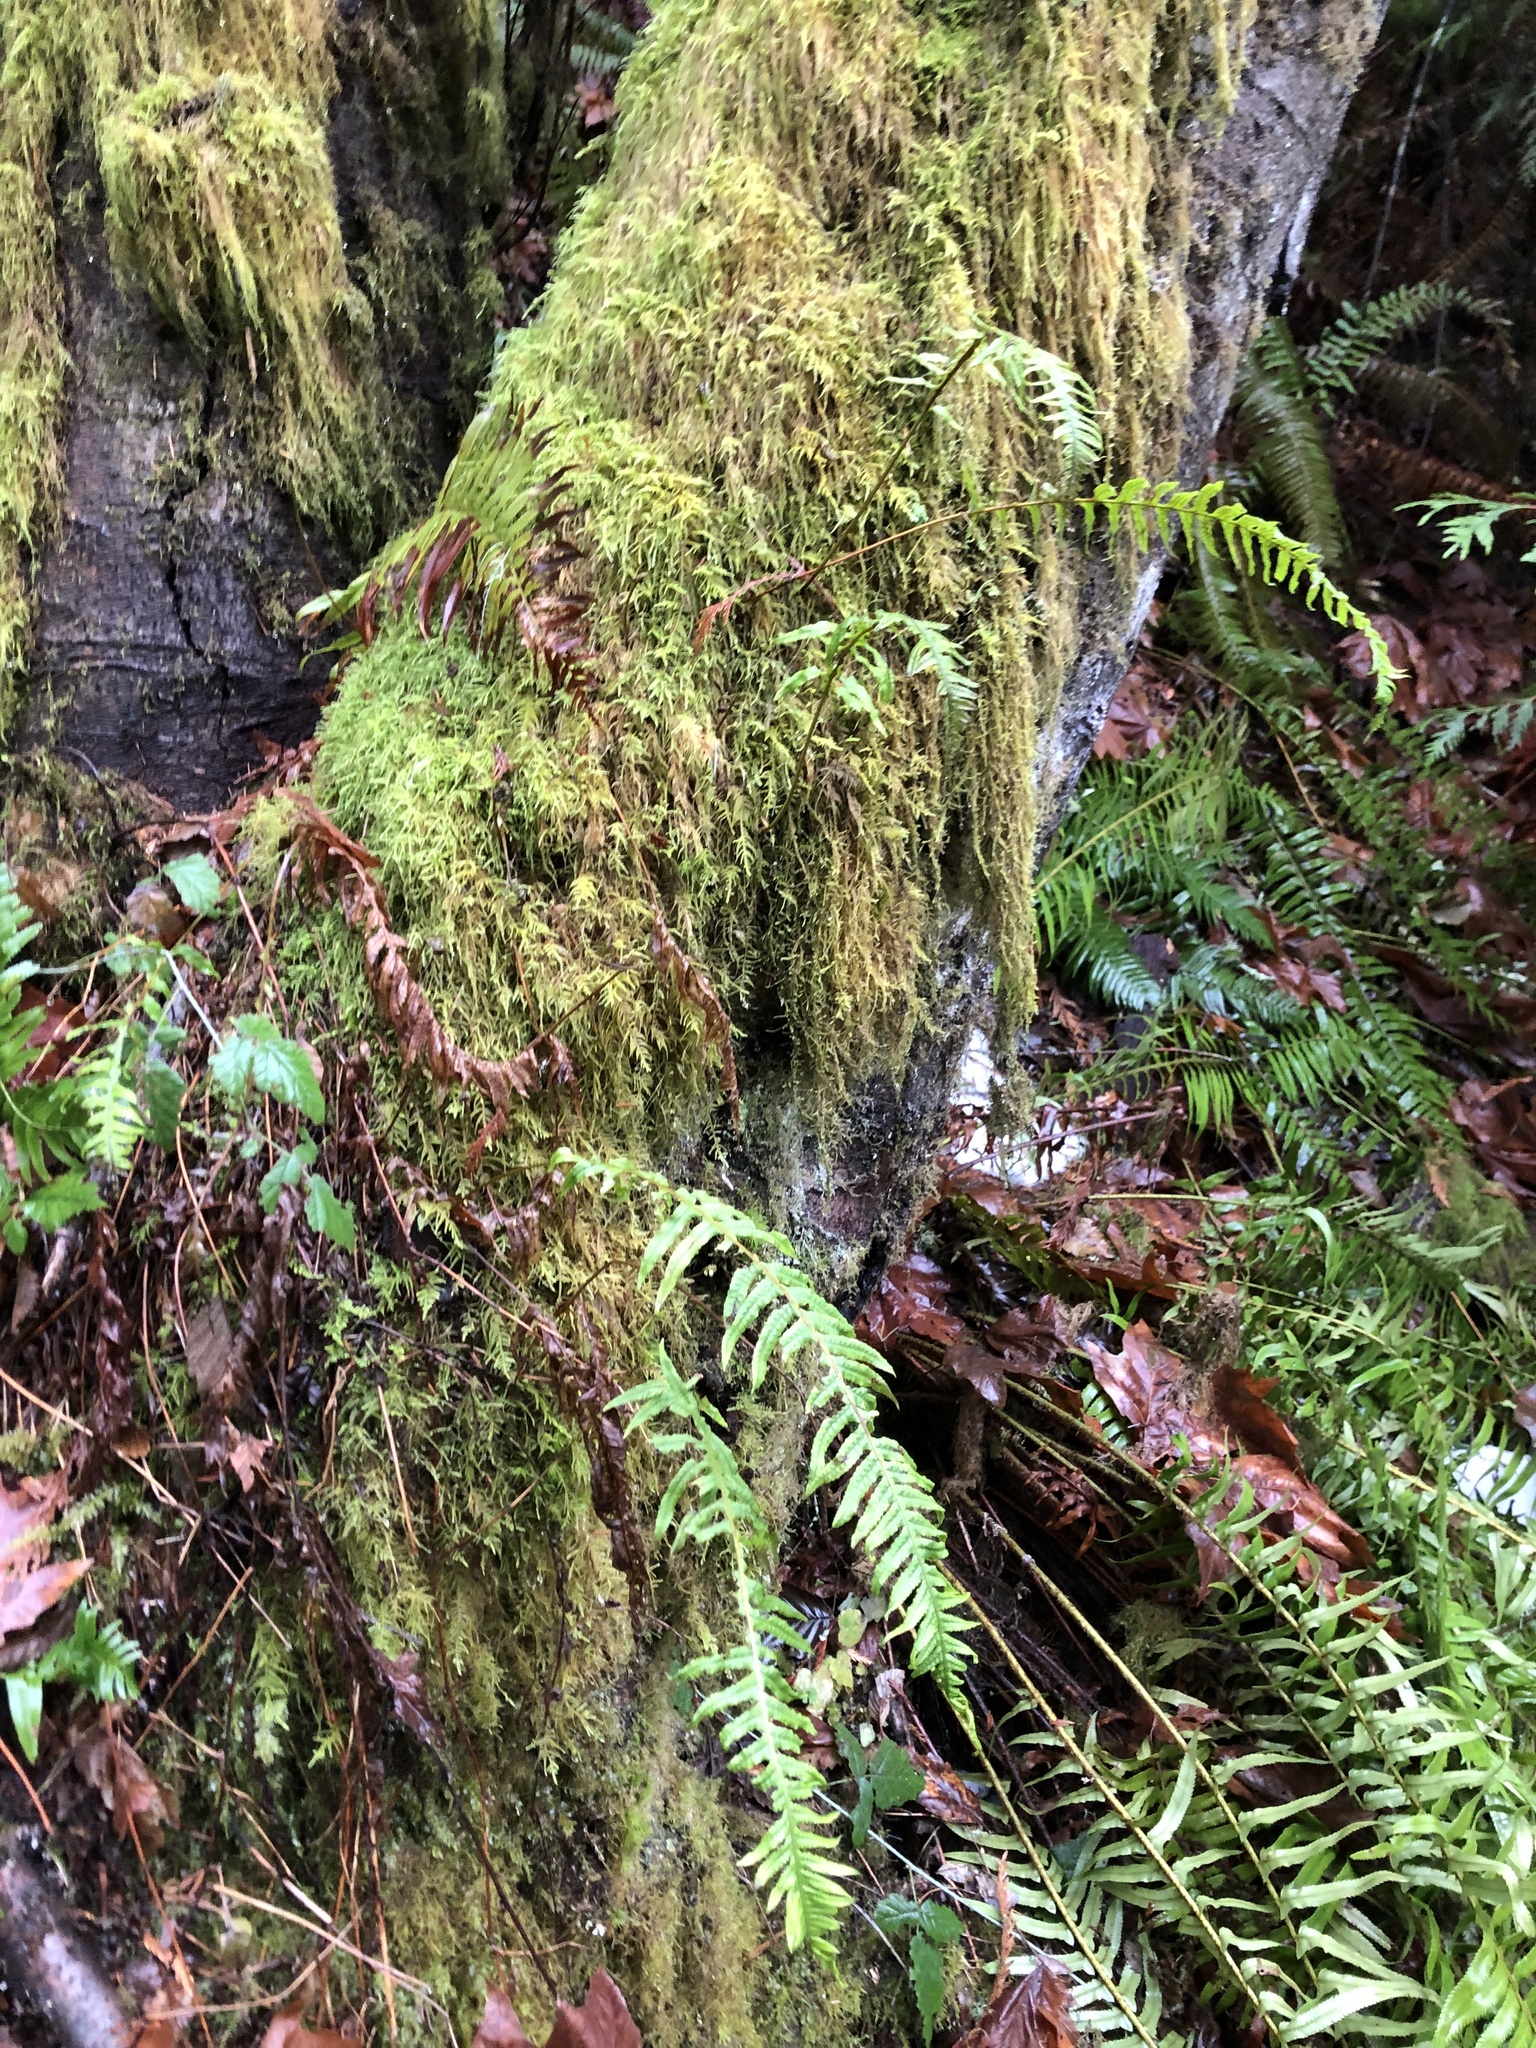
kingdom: Plantae
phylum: Tracheophyta
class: Polypodiopsida
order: Polypodiales
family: Polypodiaceae
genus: Polypodium
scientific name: Polypodium glycyrrhiza
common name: Licorice fern
